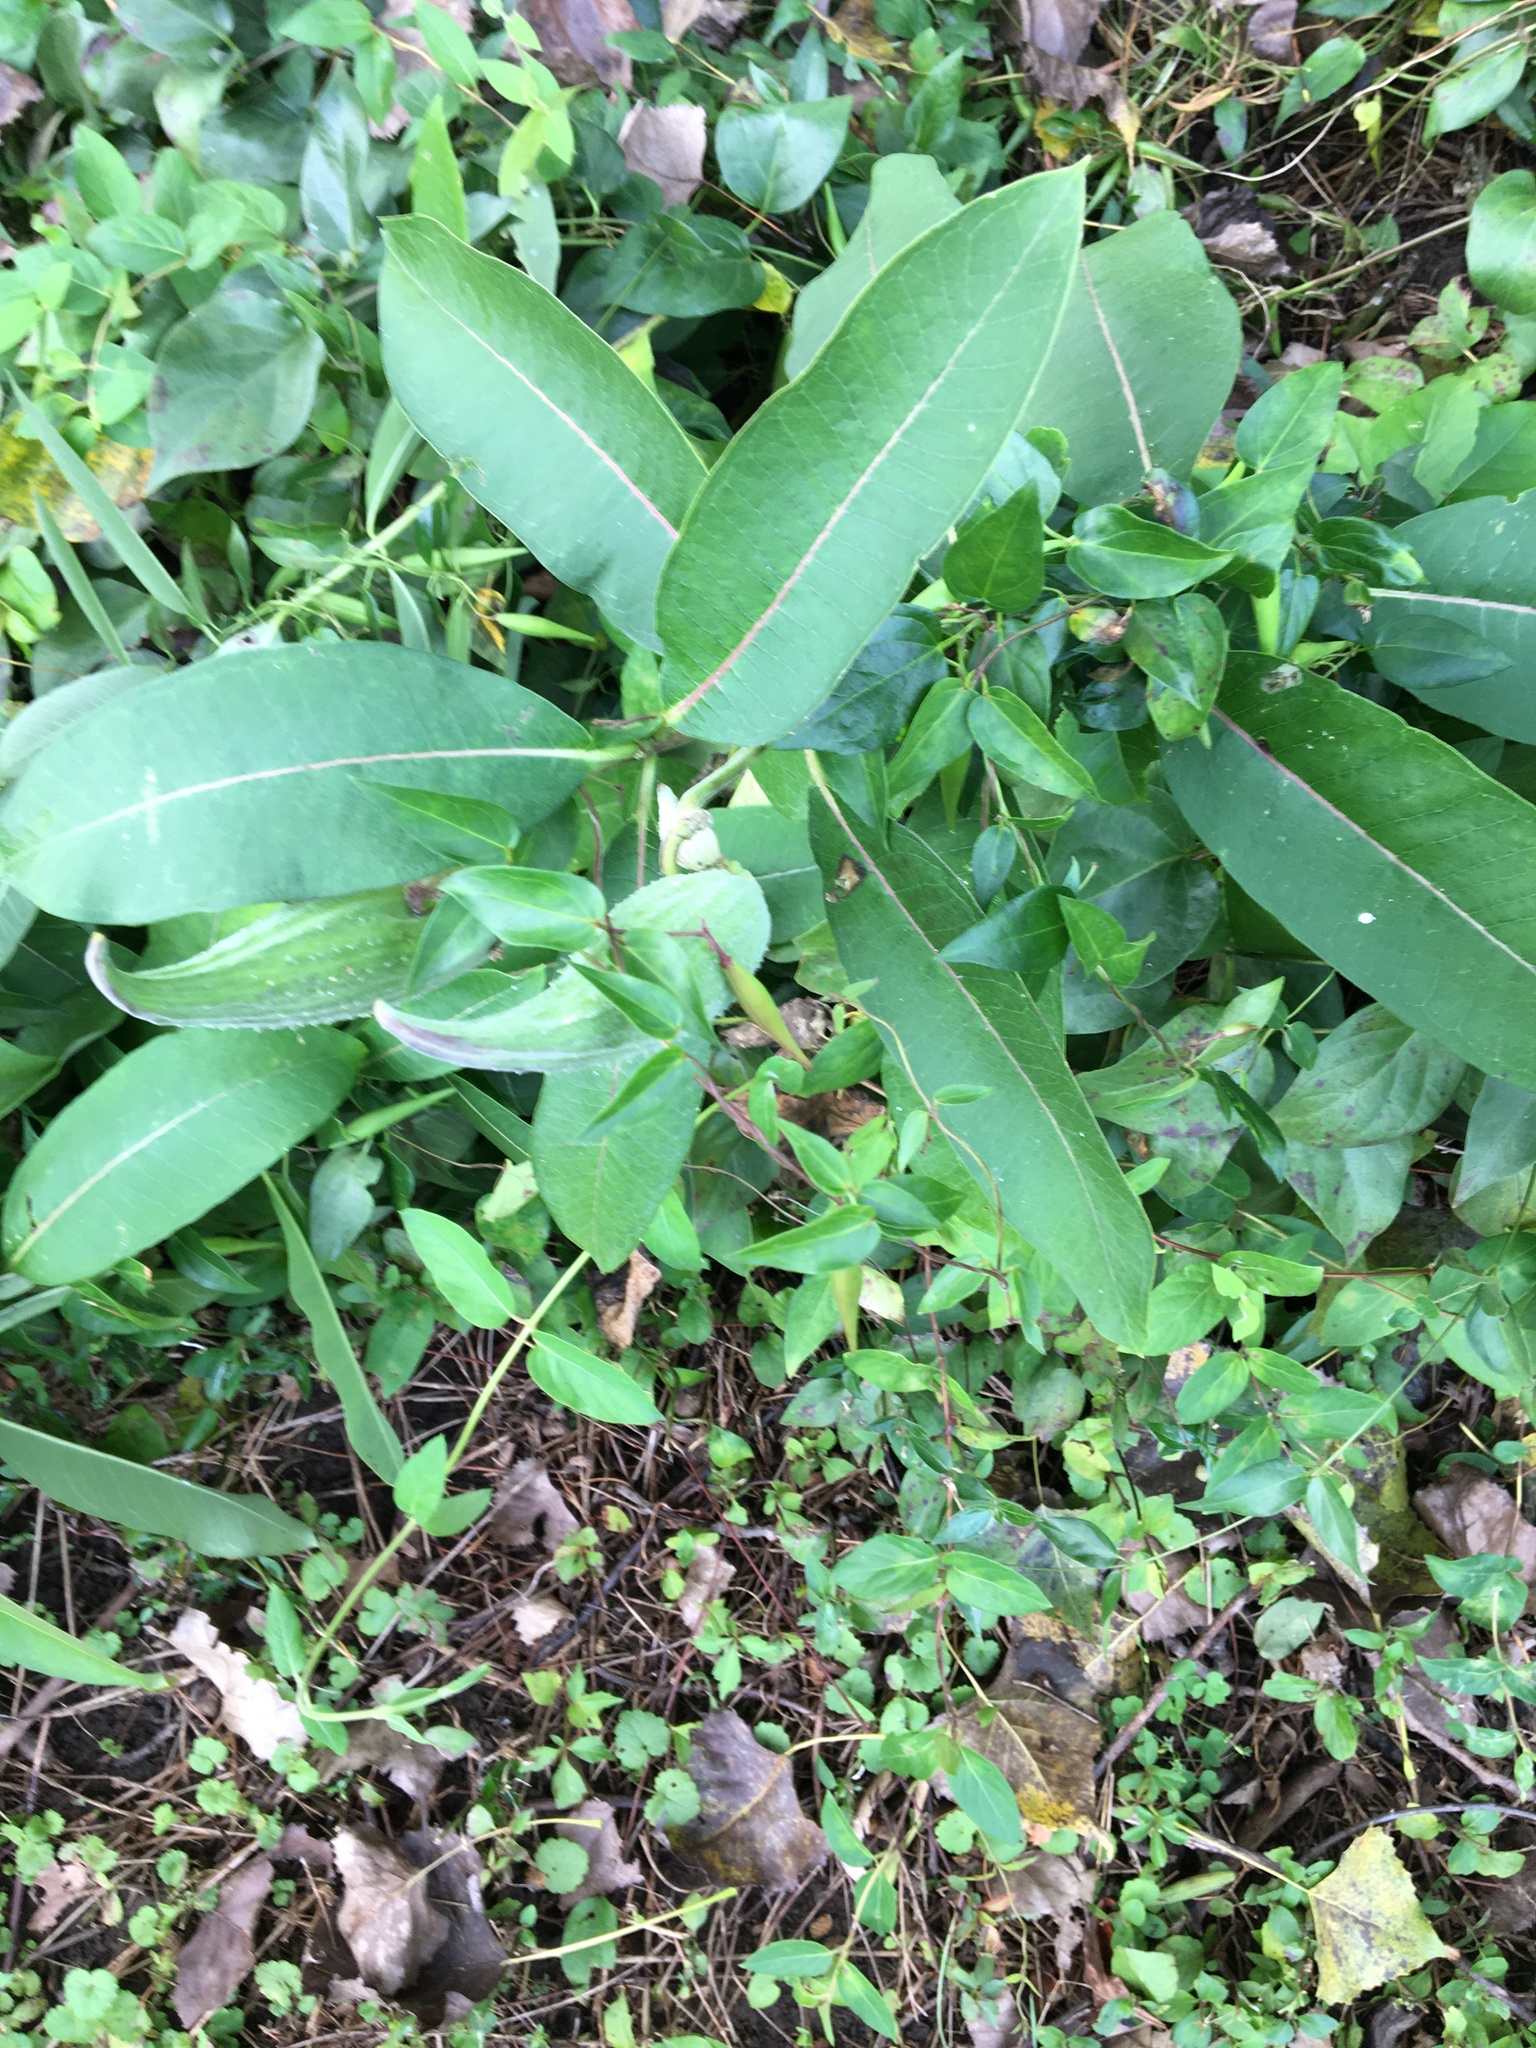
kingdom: Plantae
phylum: Tracheophyta
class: Magnoliopsida
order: Gentianales
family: Apocynaceae
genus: Asclepias
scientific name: Asclepias syriaca
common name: Common milkweed
